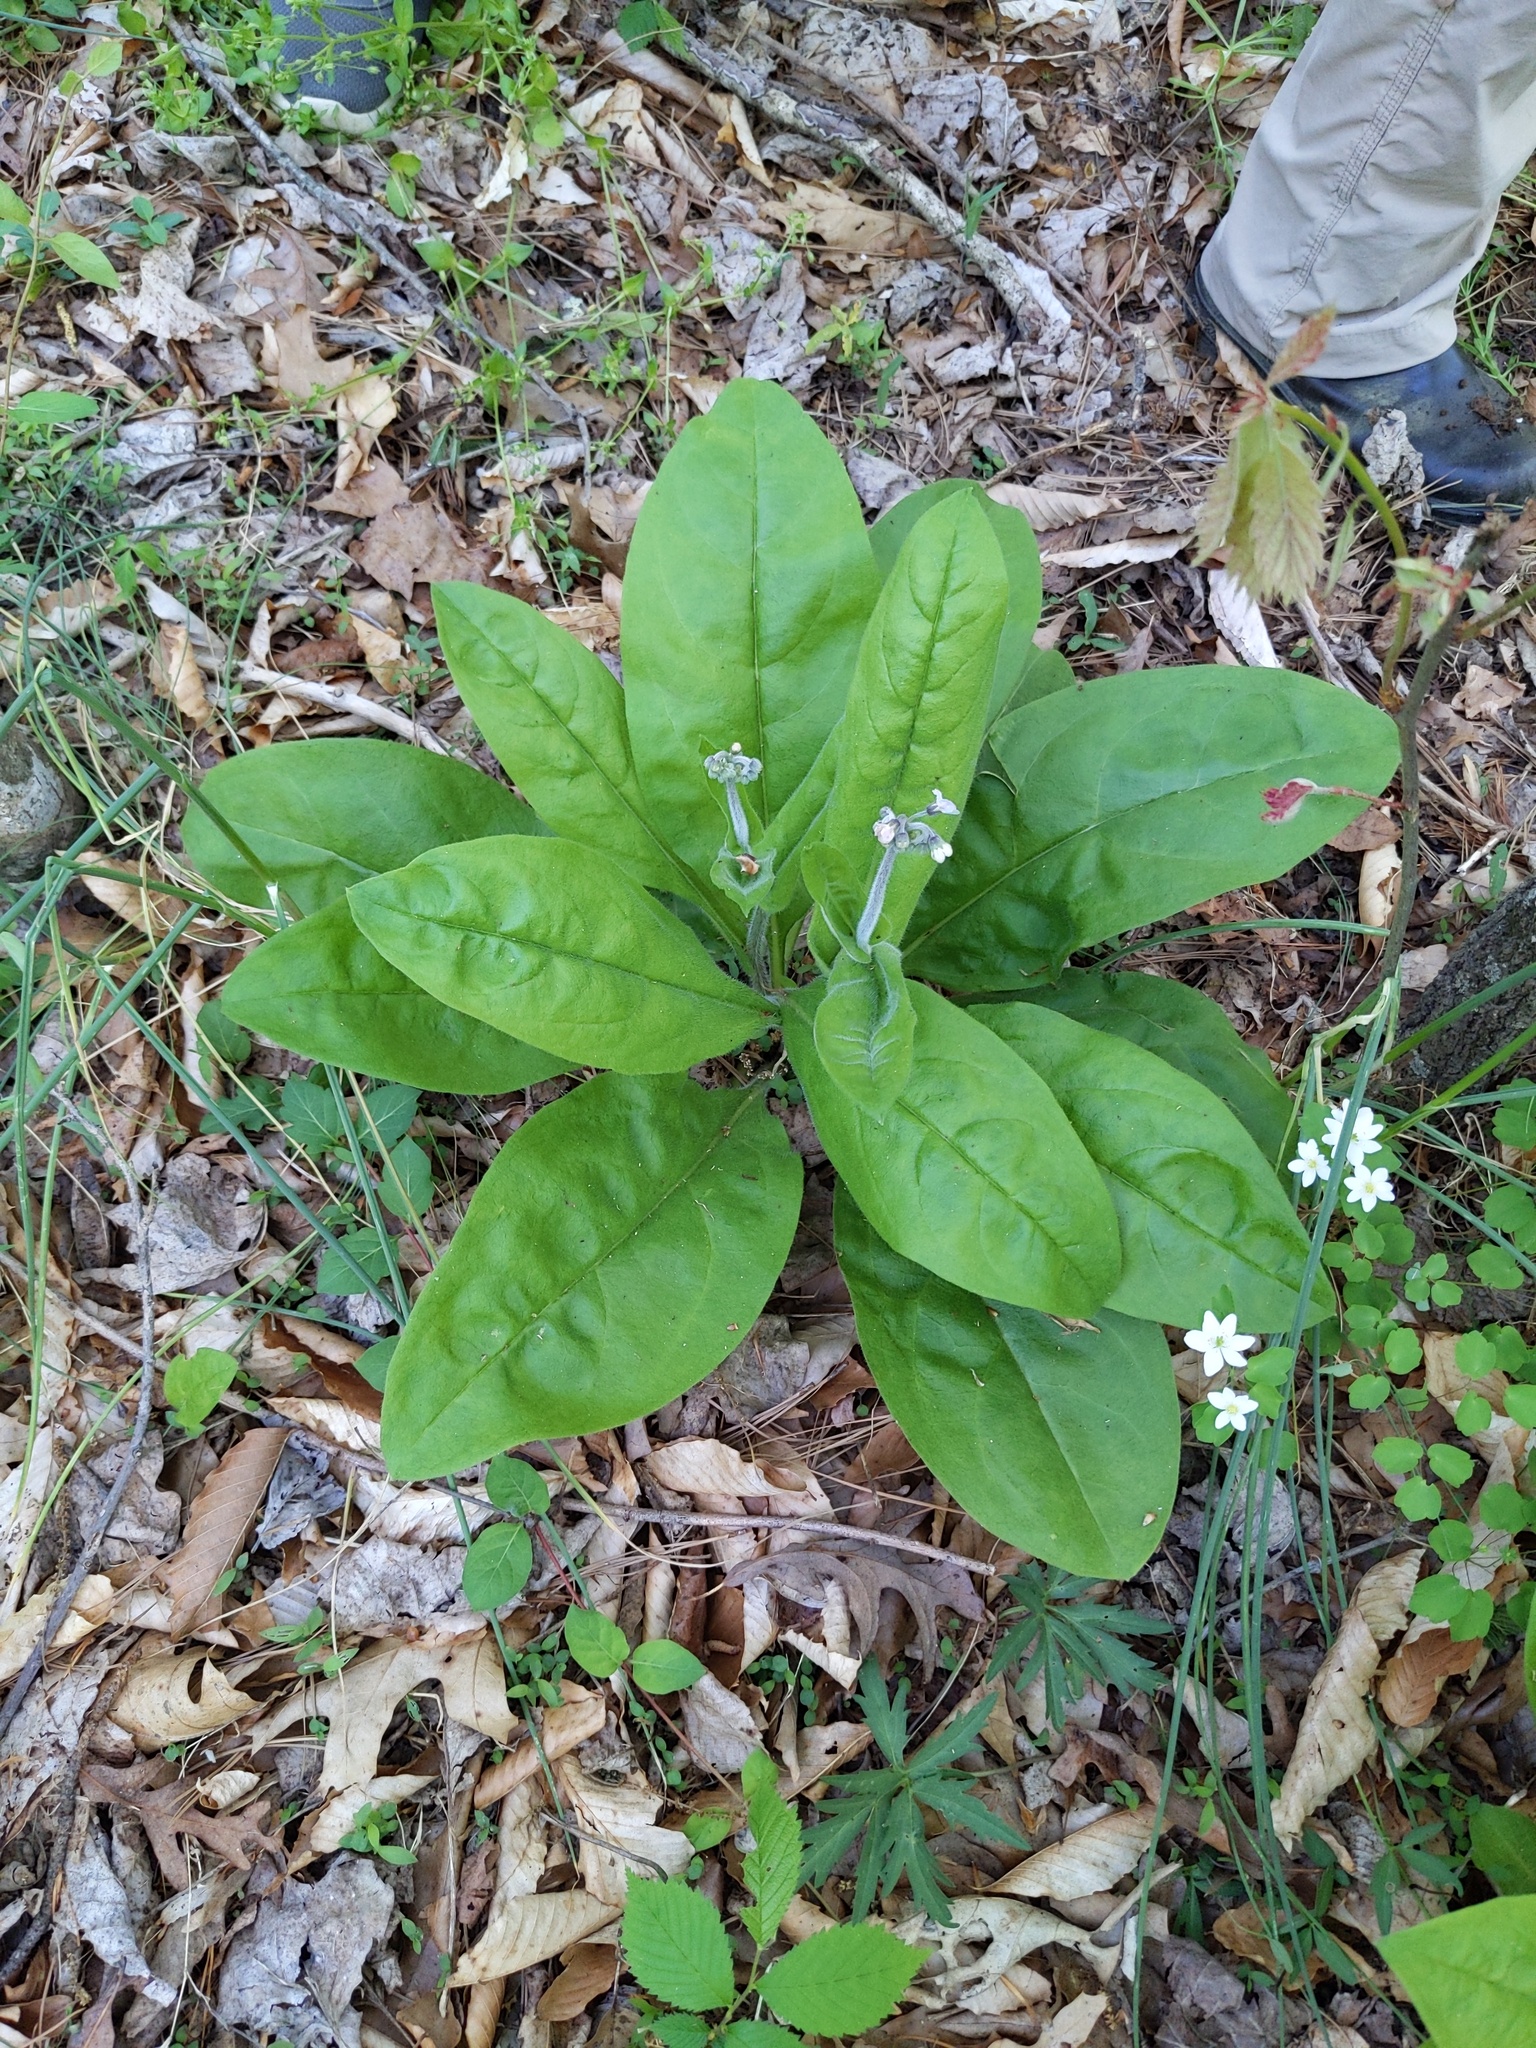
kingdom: Plantae
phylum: Tracheophyta
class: Magnoliopsida
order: Boraginales
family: Boraginaceae
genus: Andersonglossum
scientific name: Andersonglossum virginianum
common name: Wild comfrey
